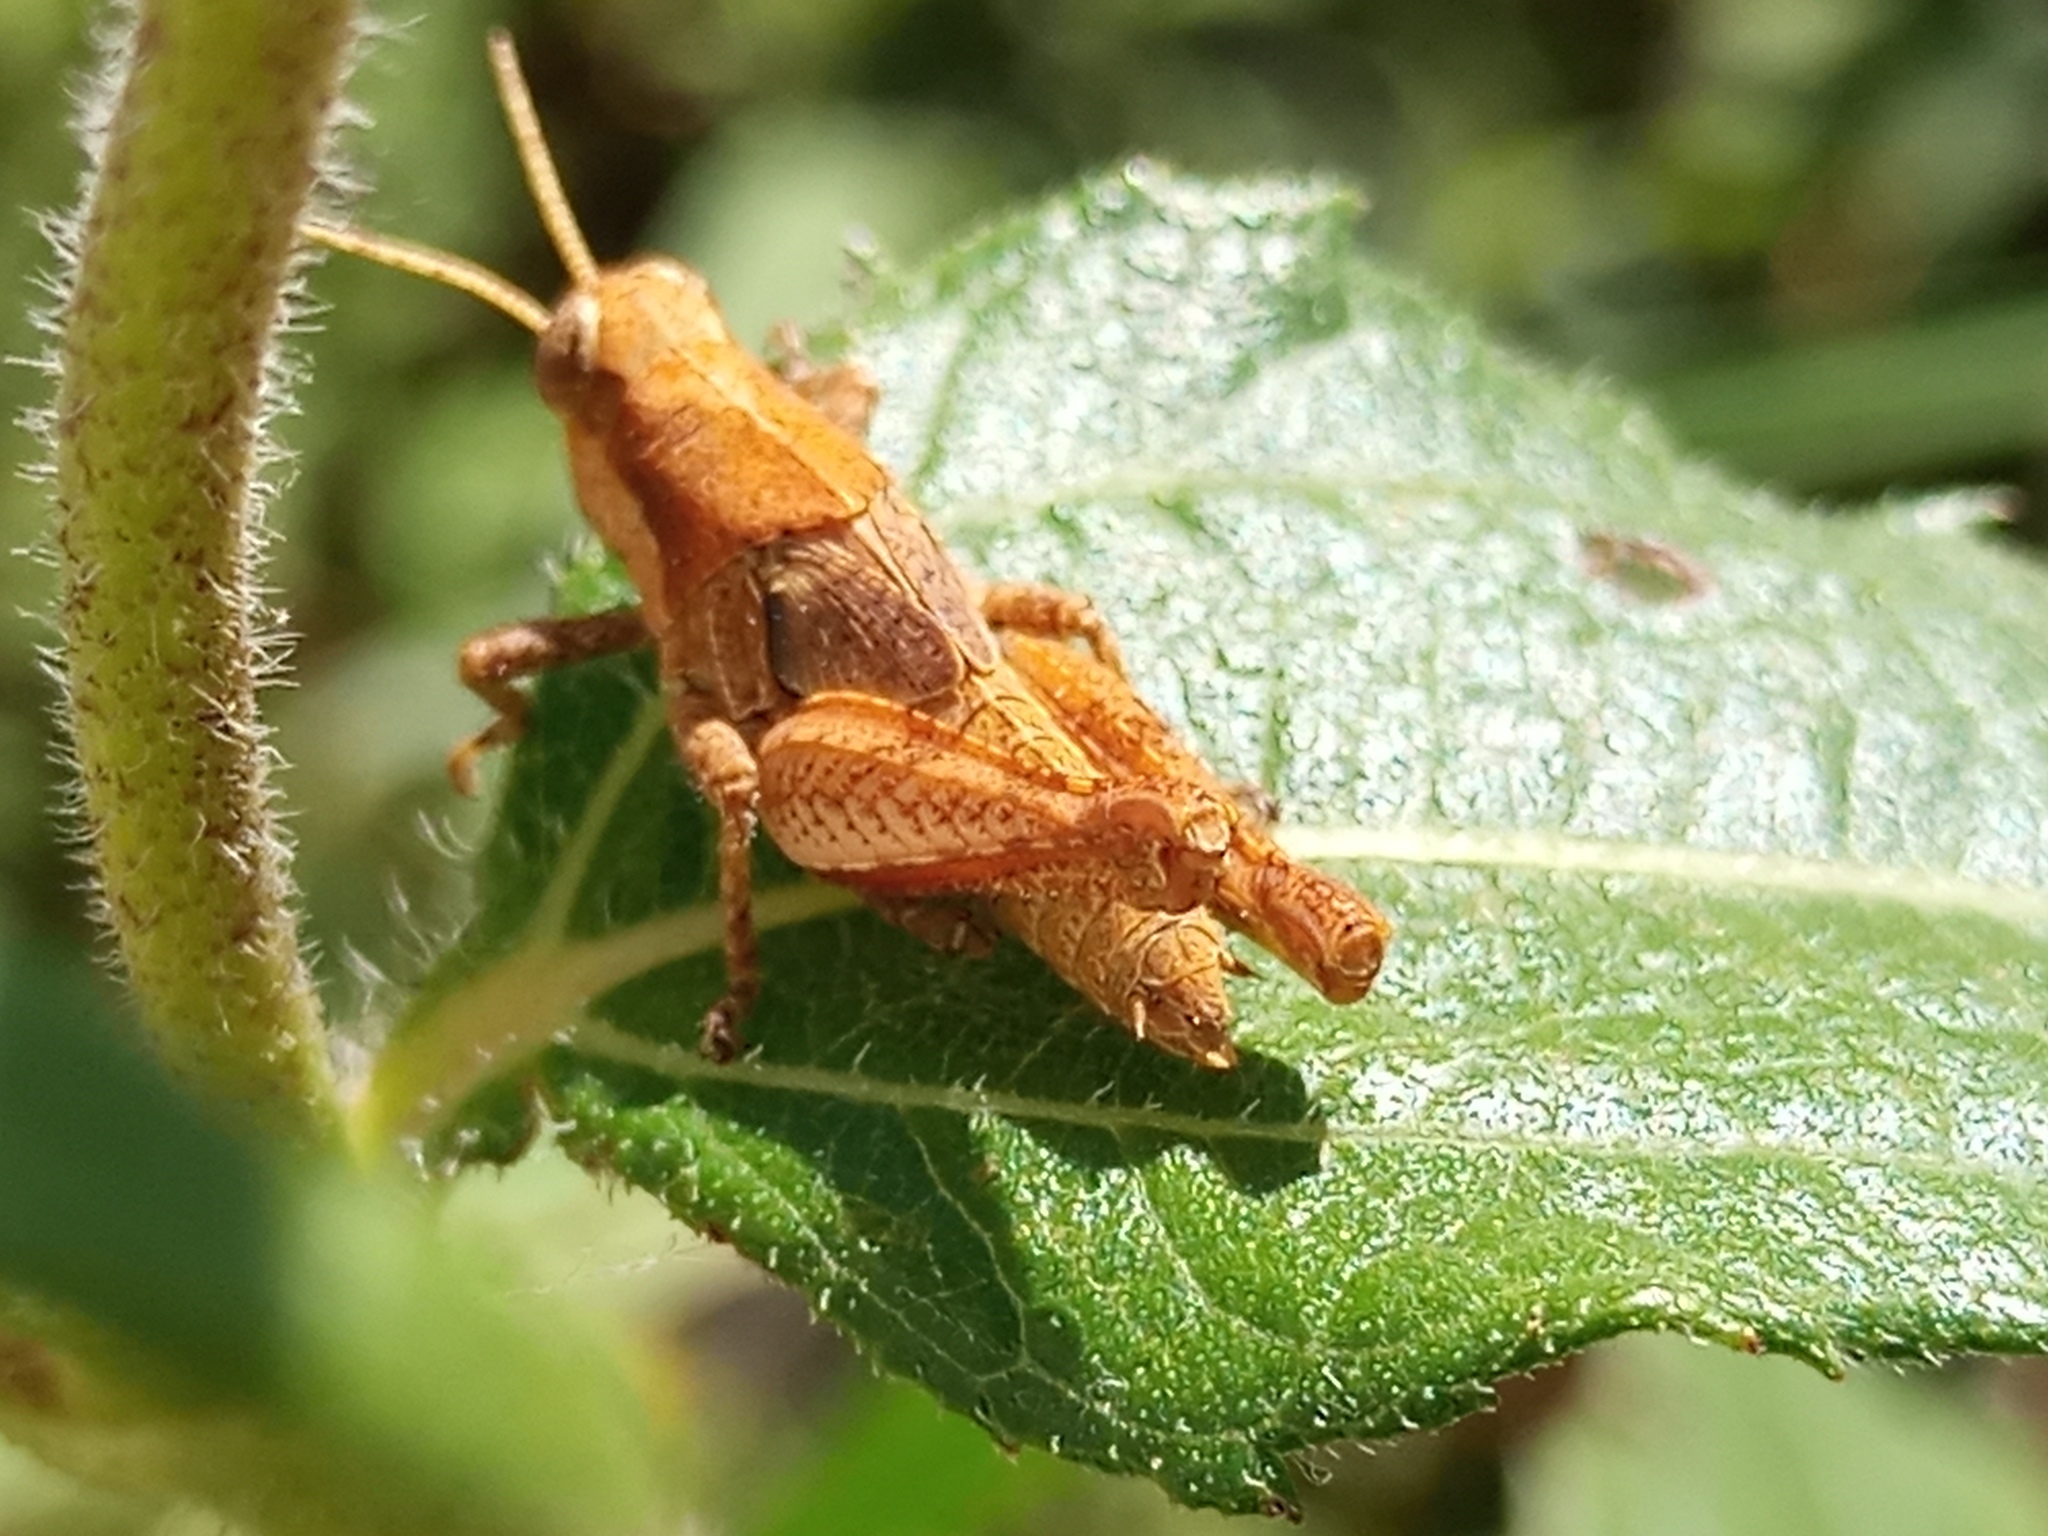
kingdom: Animalia
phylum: Arthropoda
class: Insecta
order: Orthoptera
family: Acrididae
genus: Ronderosia
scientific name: Ronderosia bergii
